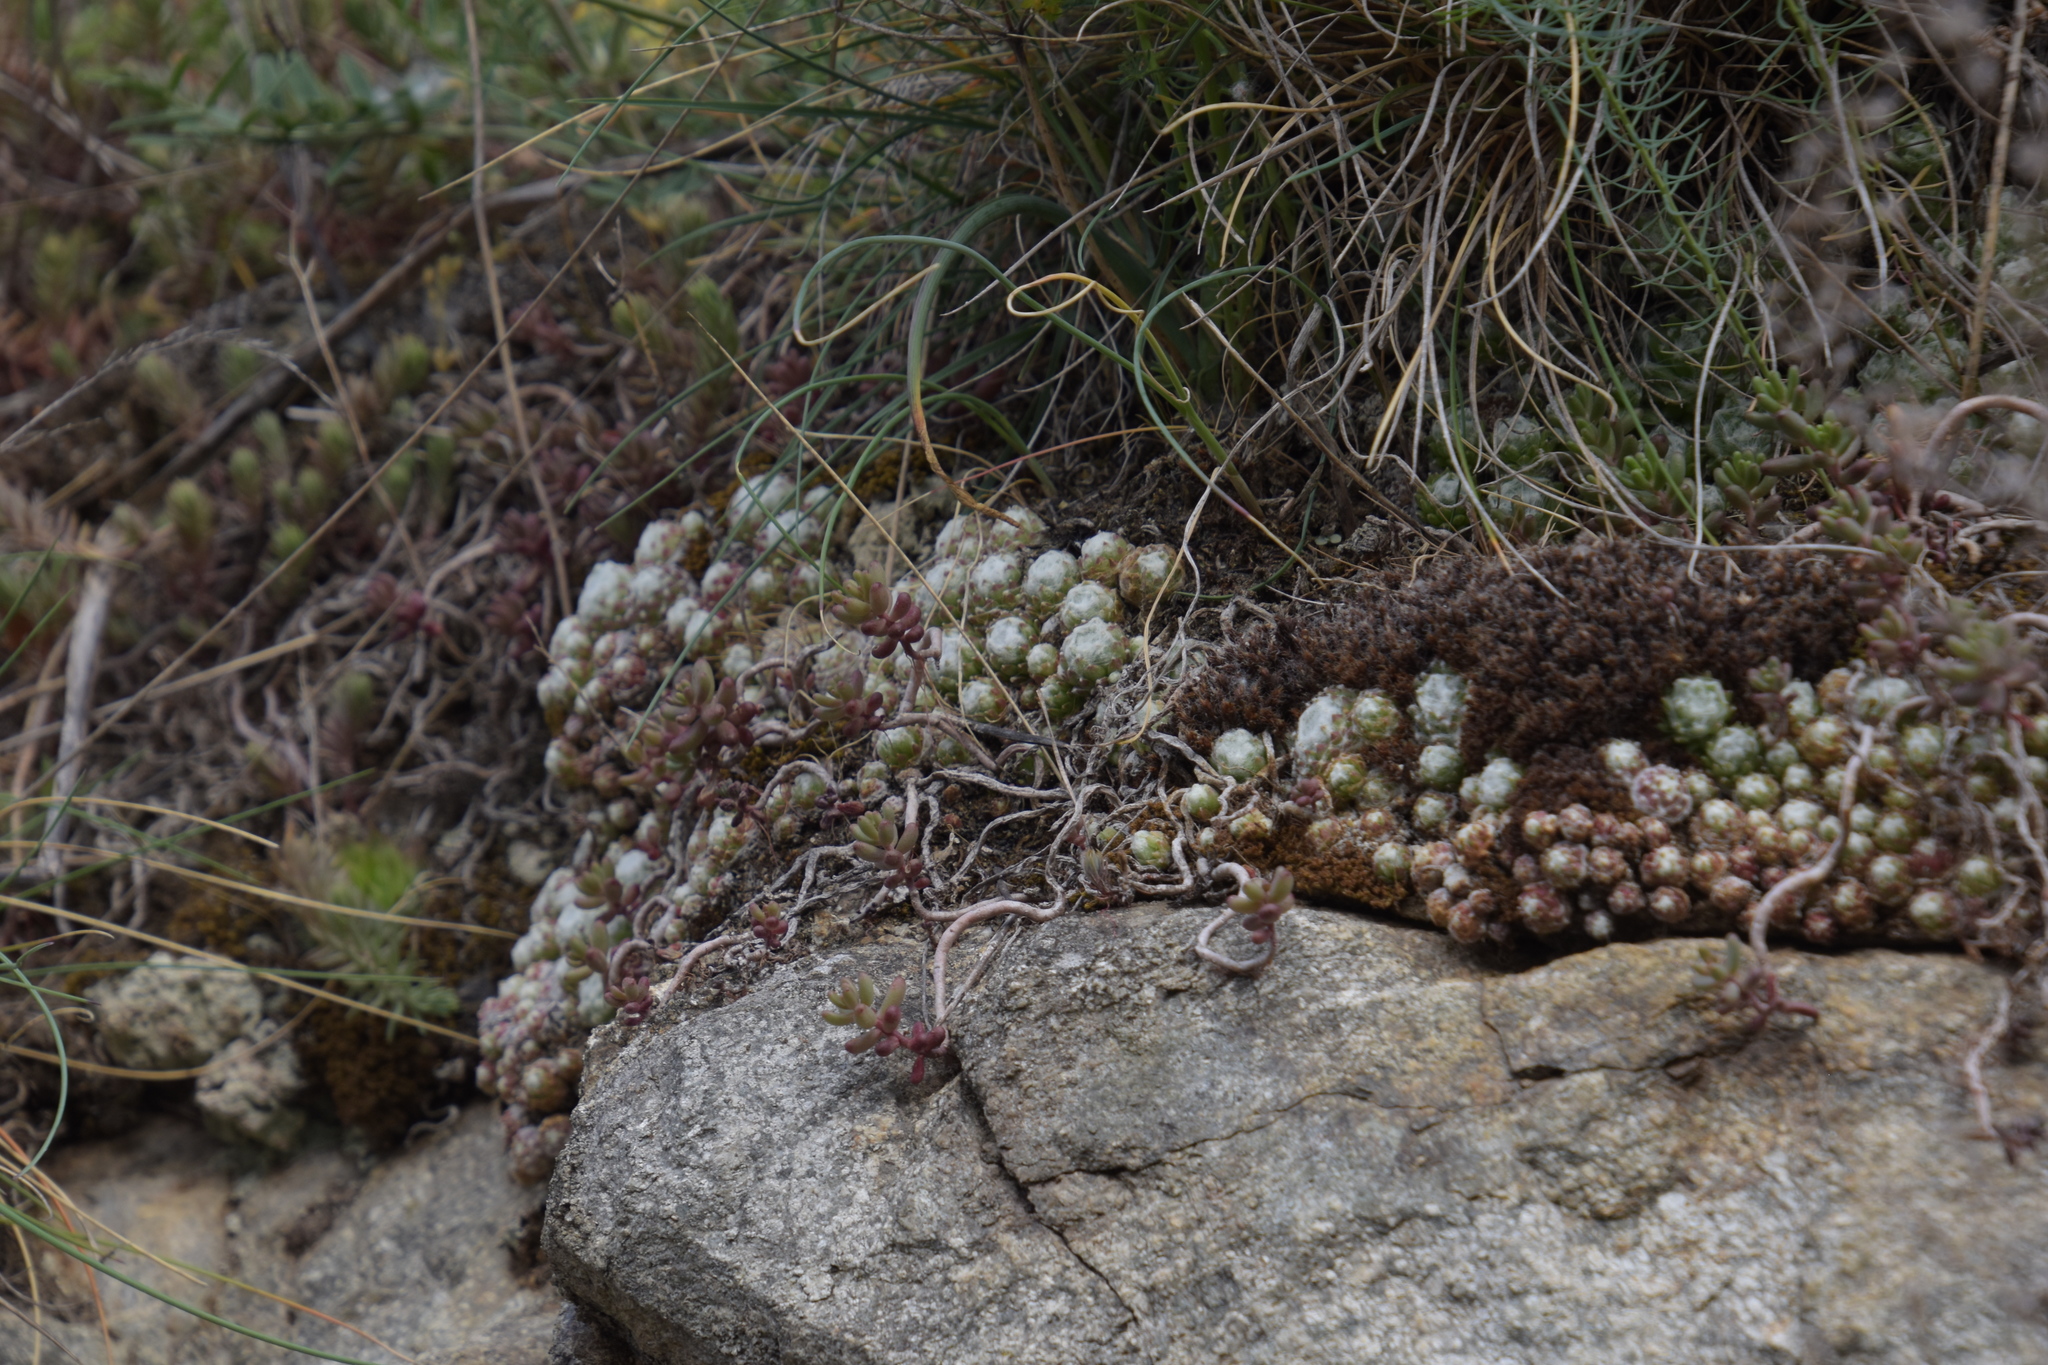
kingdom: Plantae
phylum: Tracheophyta
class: Magnoliopsida
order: Saxifragales
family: Crassulaceae
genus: Sempervivum
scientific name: Sempervivum arachnoideum
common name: Cobweb house-leek
